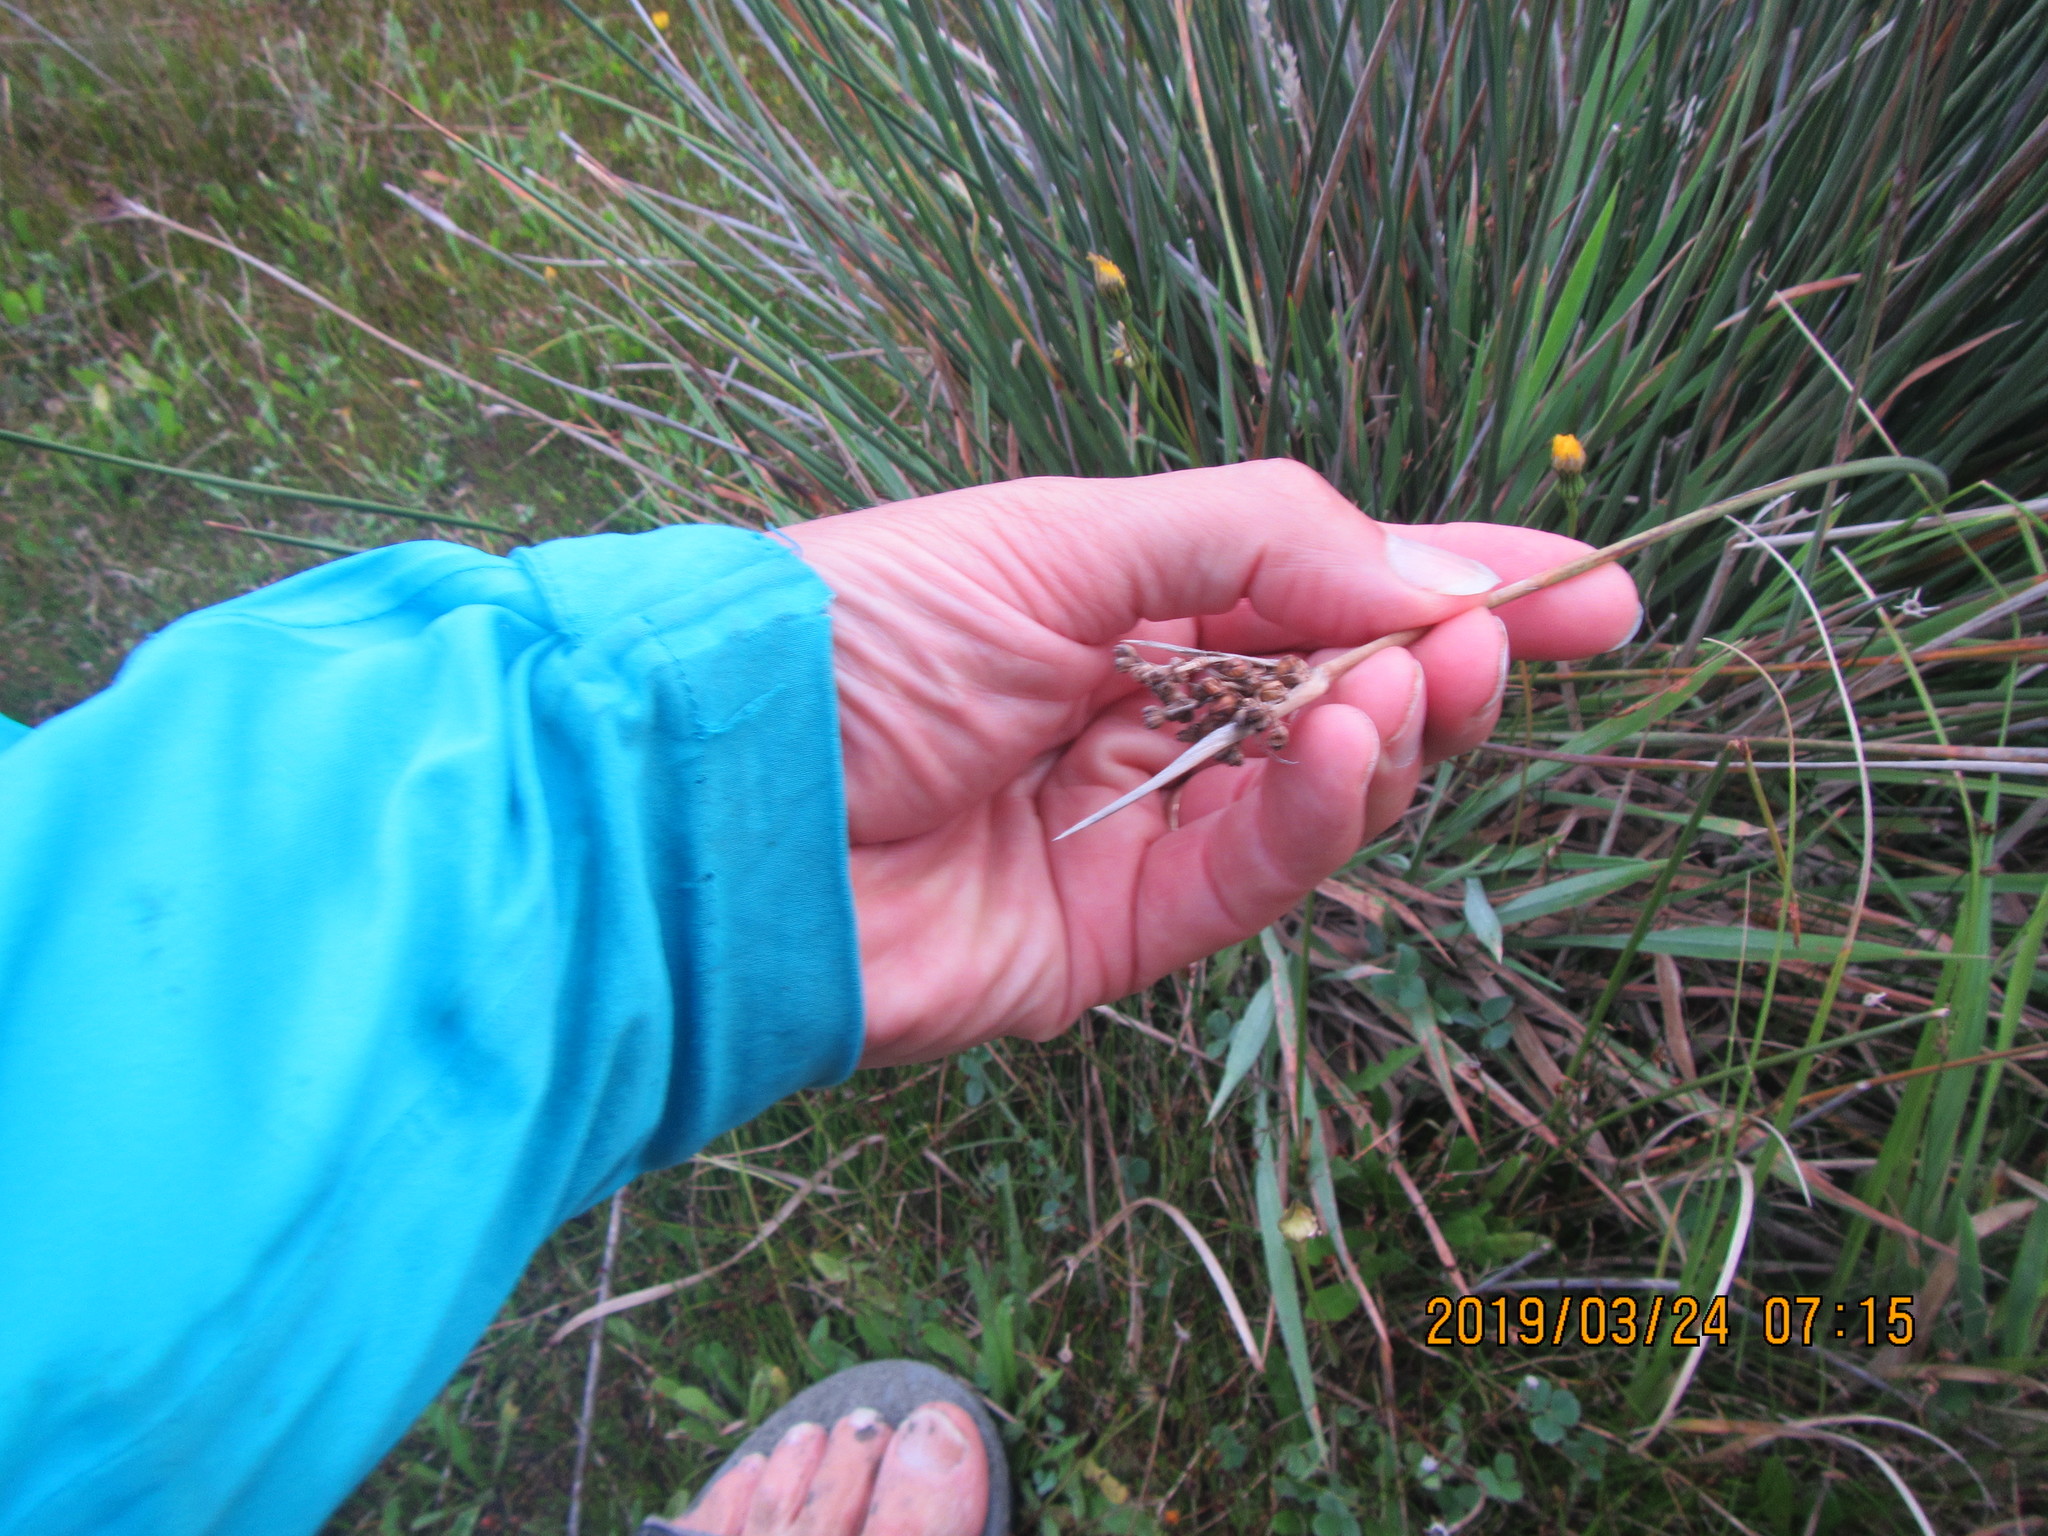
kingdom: Plantae
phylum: Tracheophyta
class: Liliopsida
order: Poales
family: Juncaceae
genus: Juncus
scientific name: Juncus acutus
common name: Sharp rush
